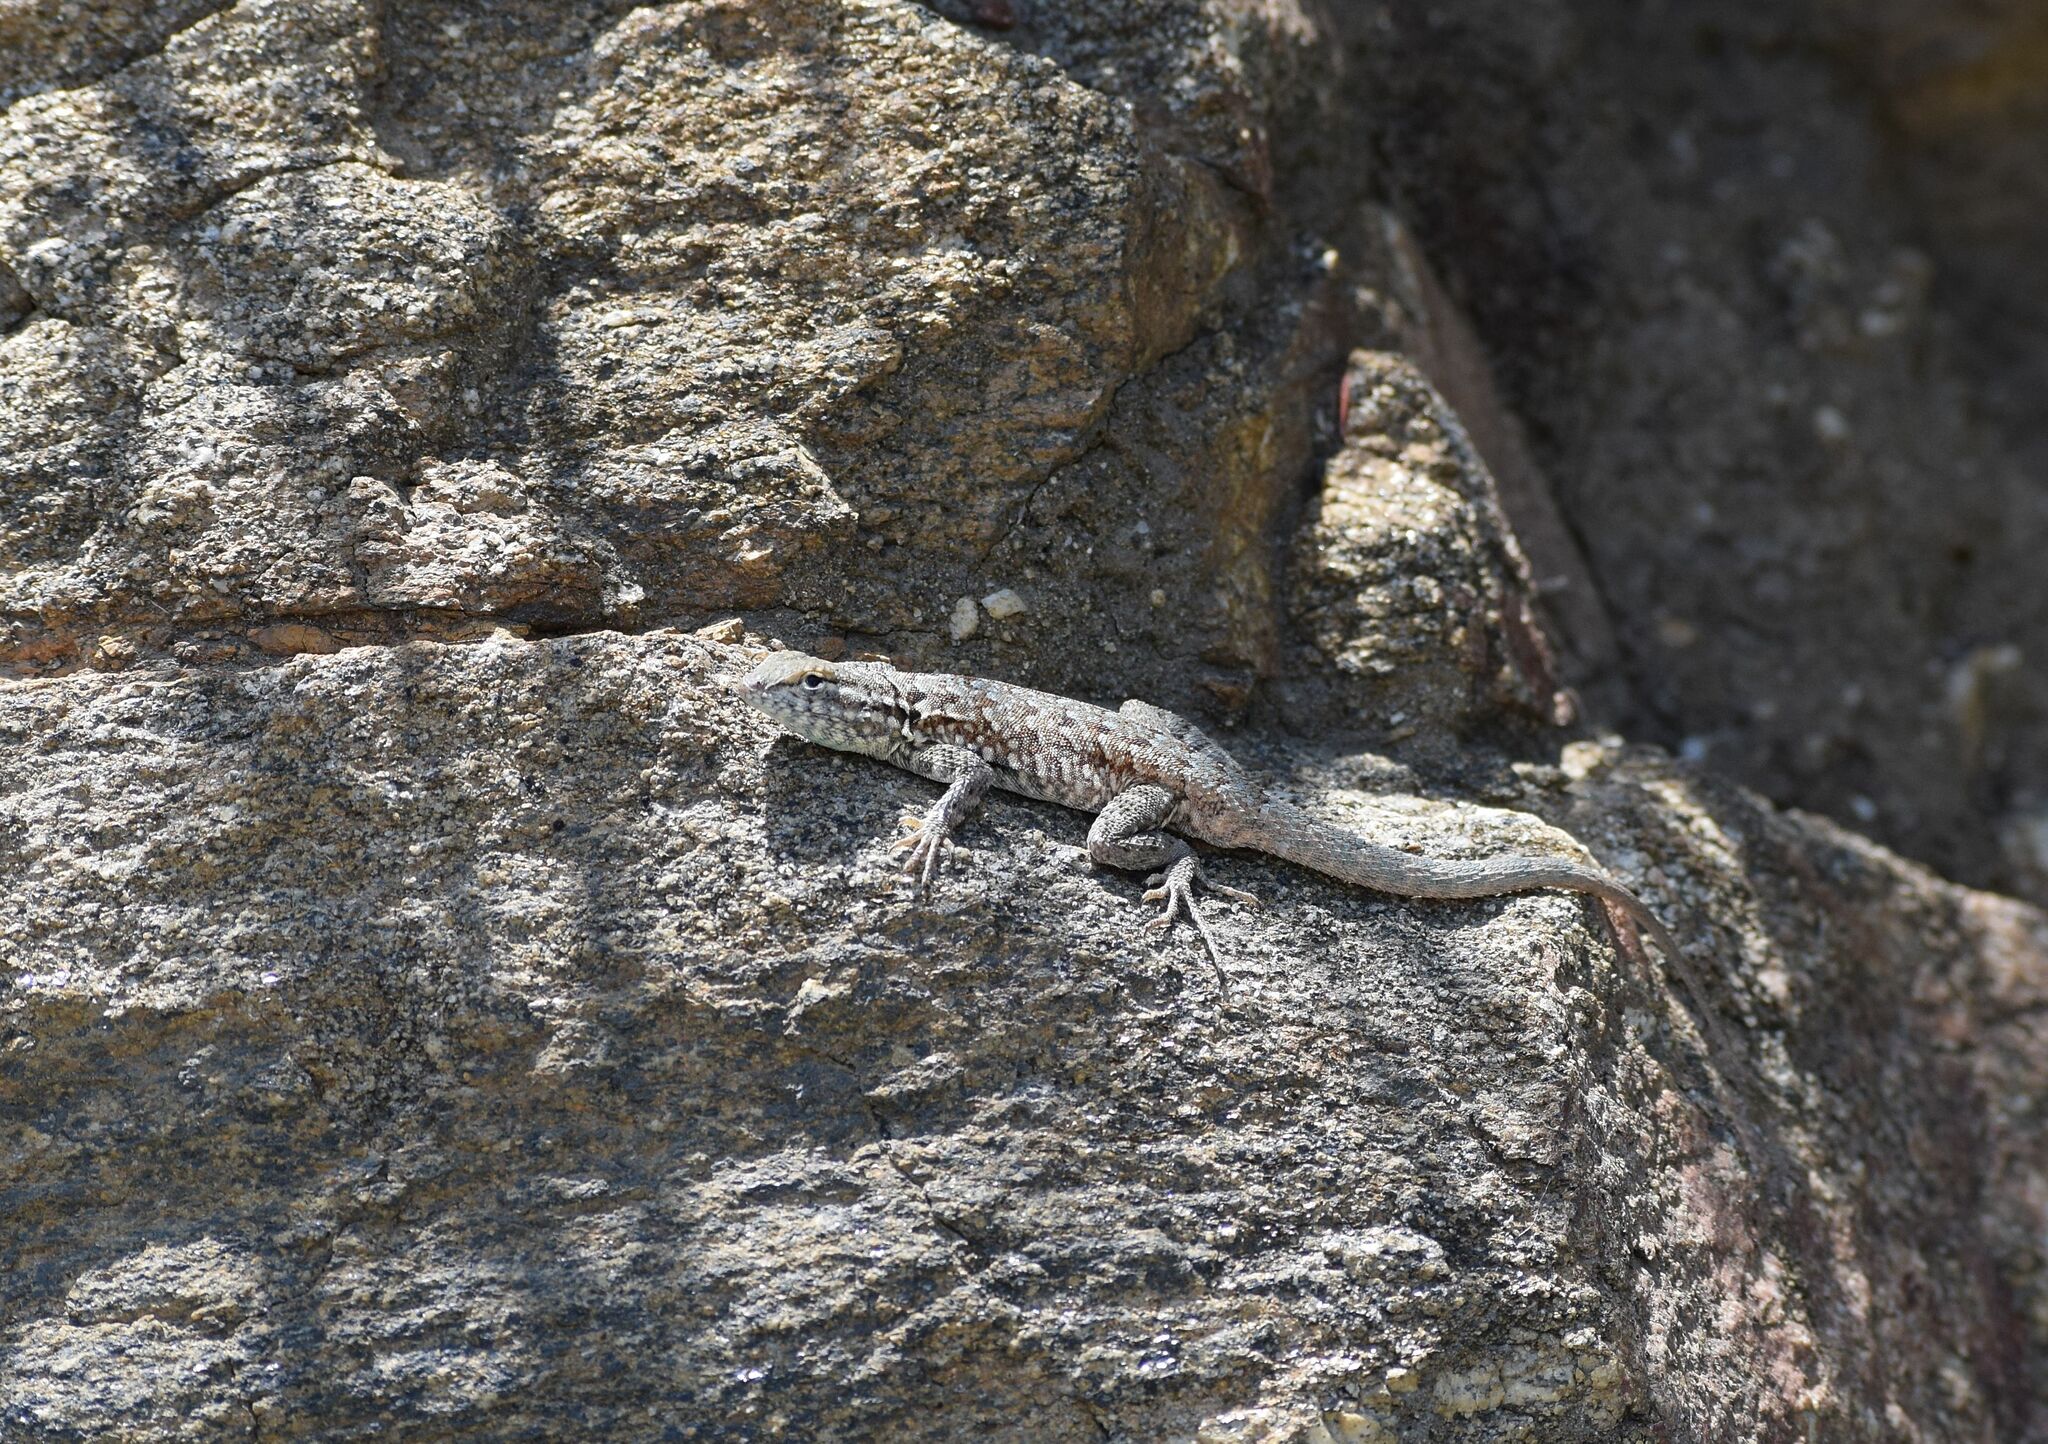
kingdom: Animalia
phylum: Chordata
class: Squamata
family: Phrynosomatidae
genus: Uta
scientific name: Uta stansburiana
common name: Side-blotched lizard
